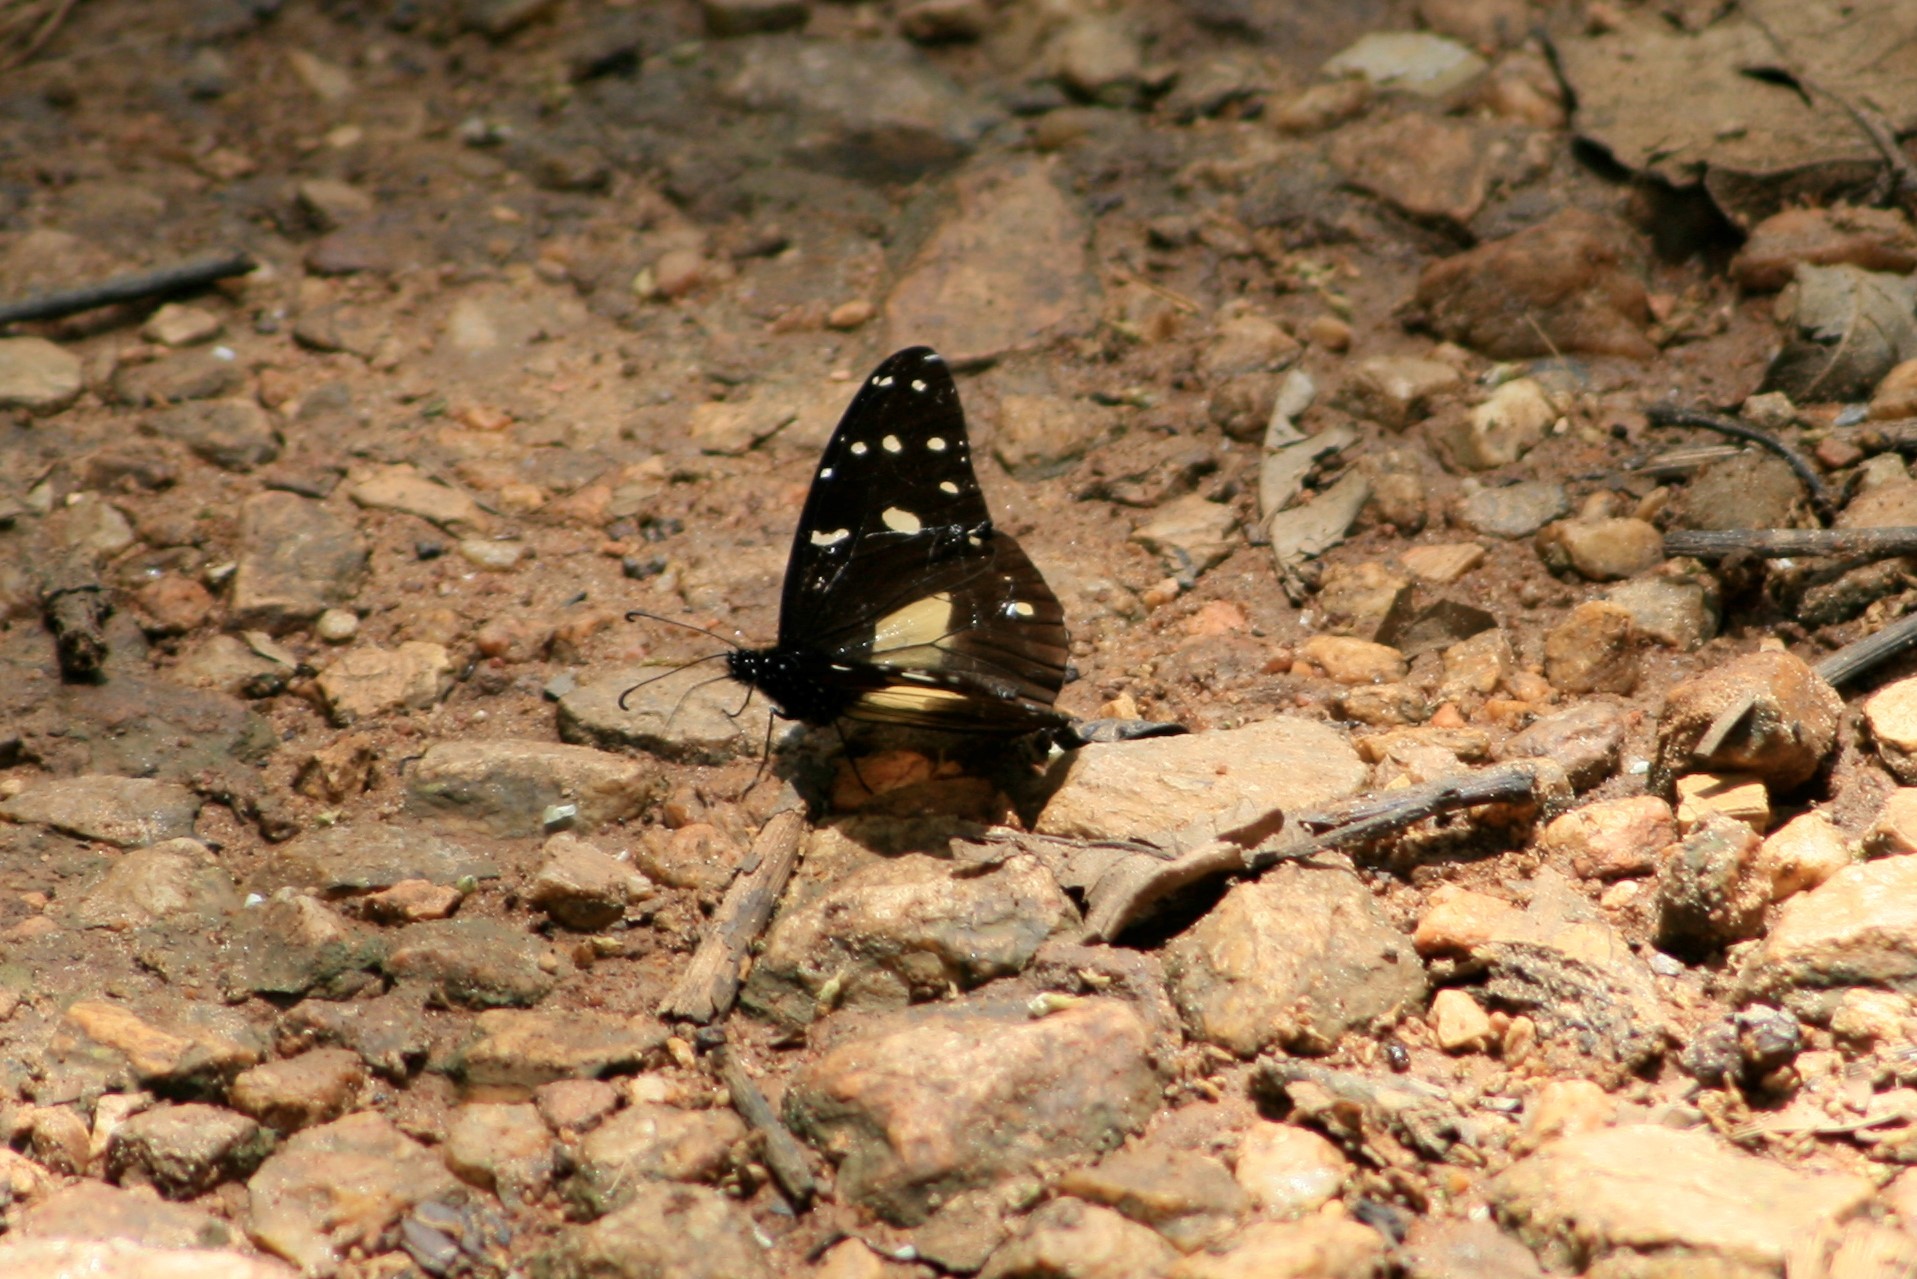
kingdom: Animalia
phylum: Arthropoda
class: Insecta
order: Lepidoptera
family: Nymphalidae
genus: Amauris
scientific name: Amauris echeria
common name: Chief
